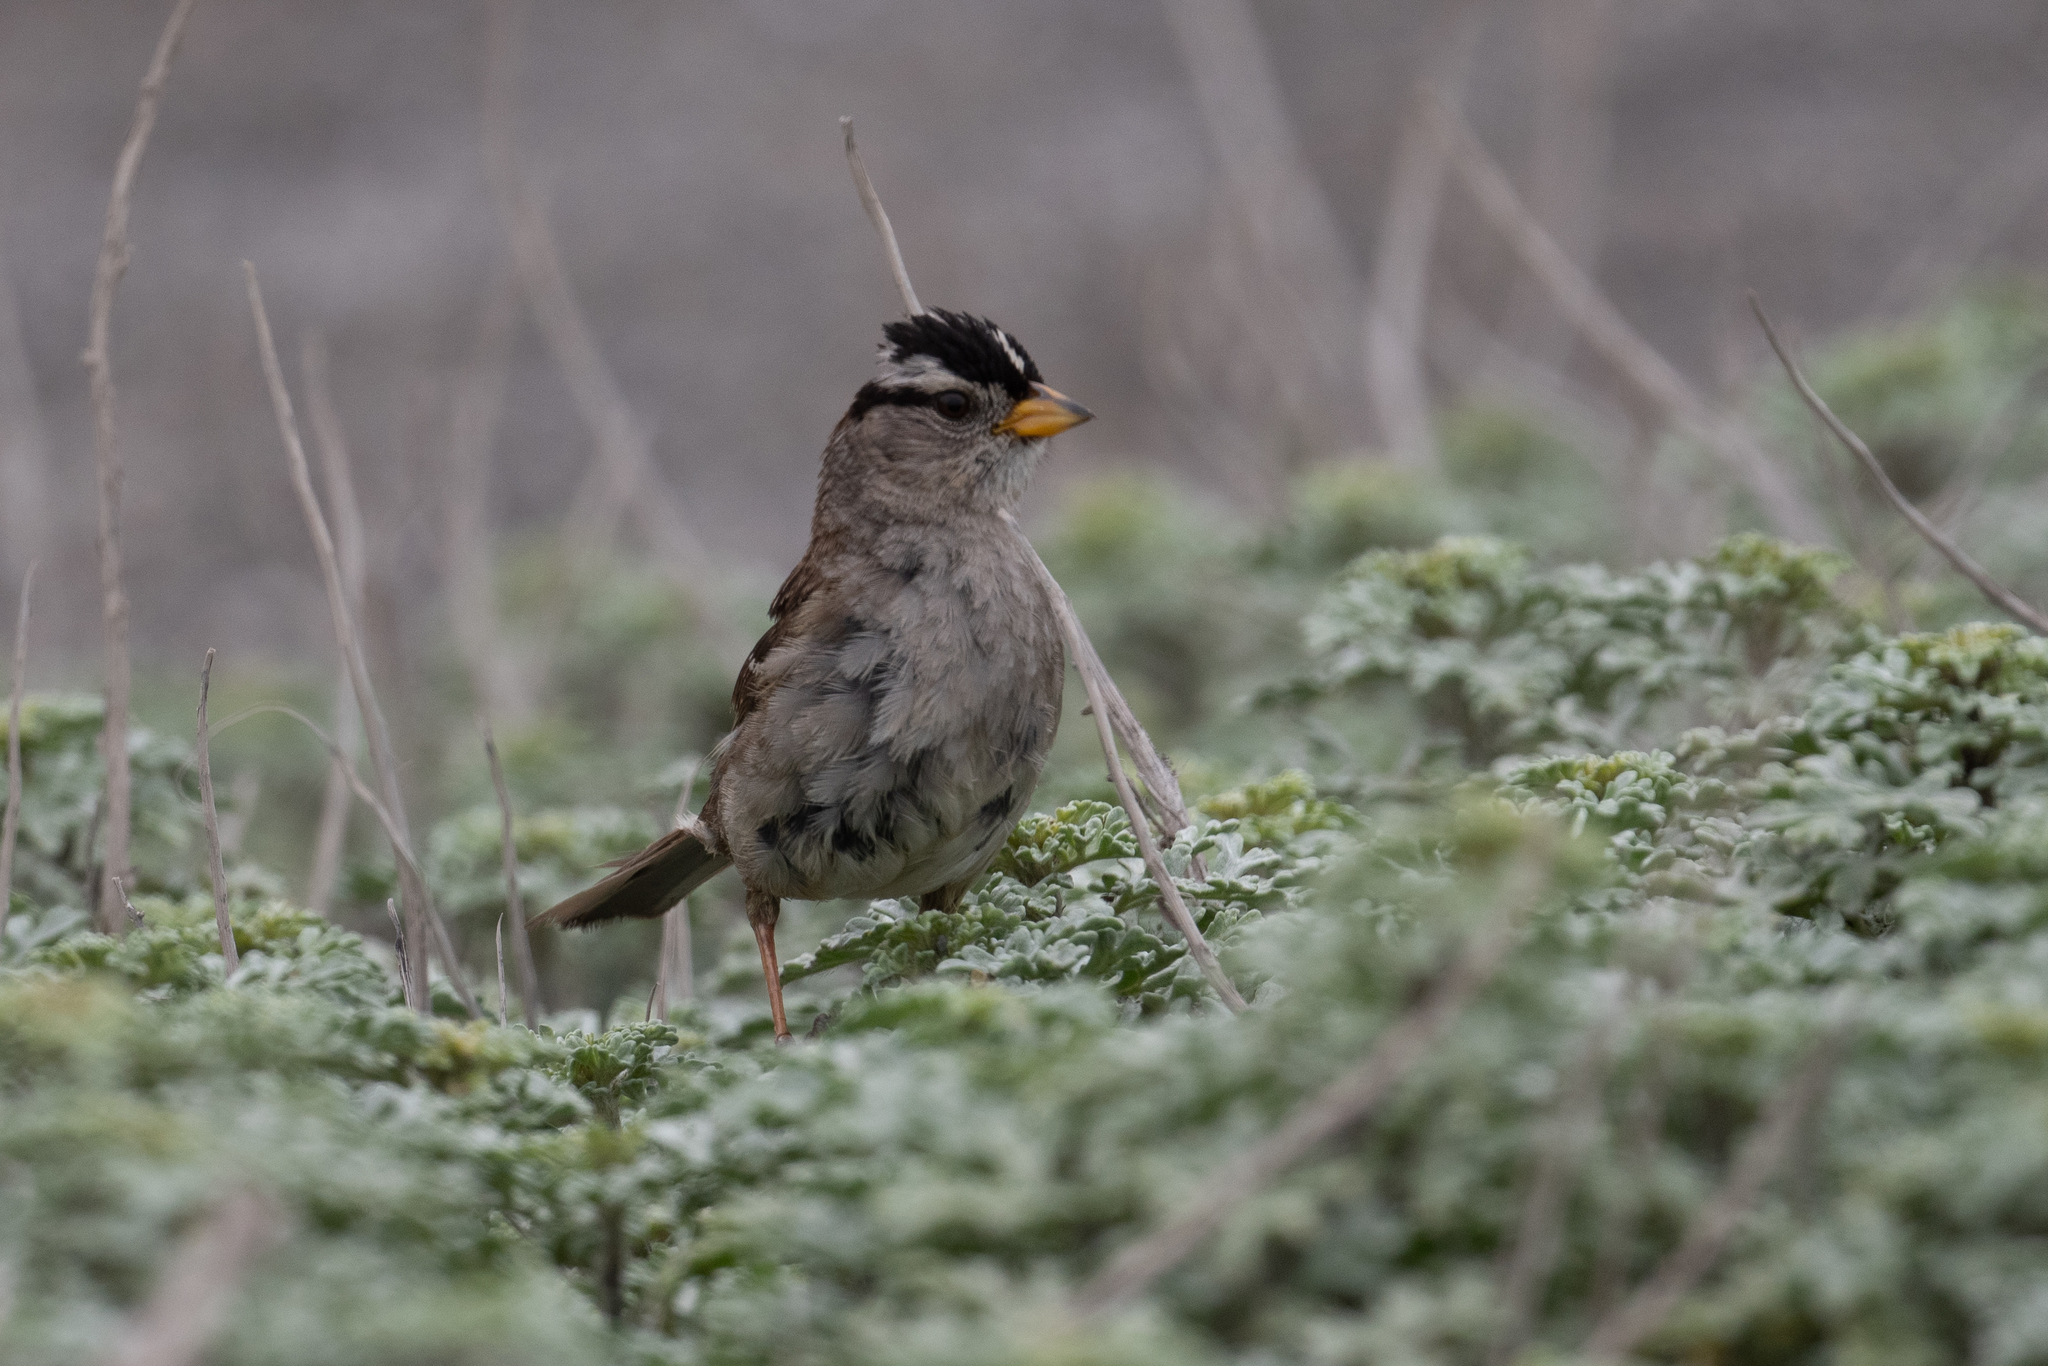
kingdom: Animalia
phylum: Chordata
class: Aves
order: Passeriformes
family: Passerellidae
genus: Zonotrichia
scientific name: Zonotrichia leucophrys
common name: White-crowned sparrow
